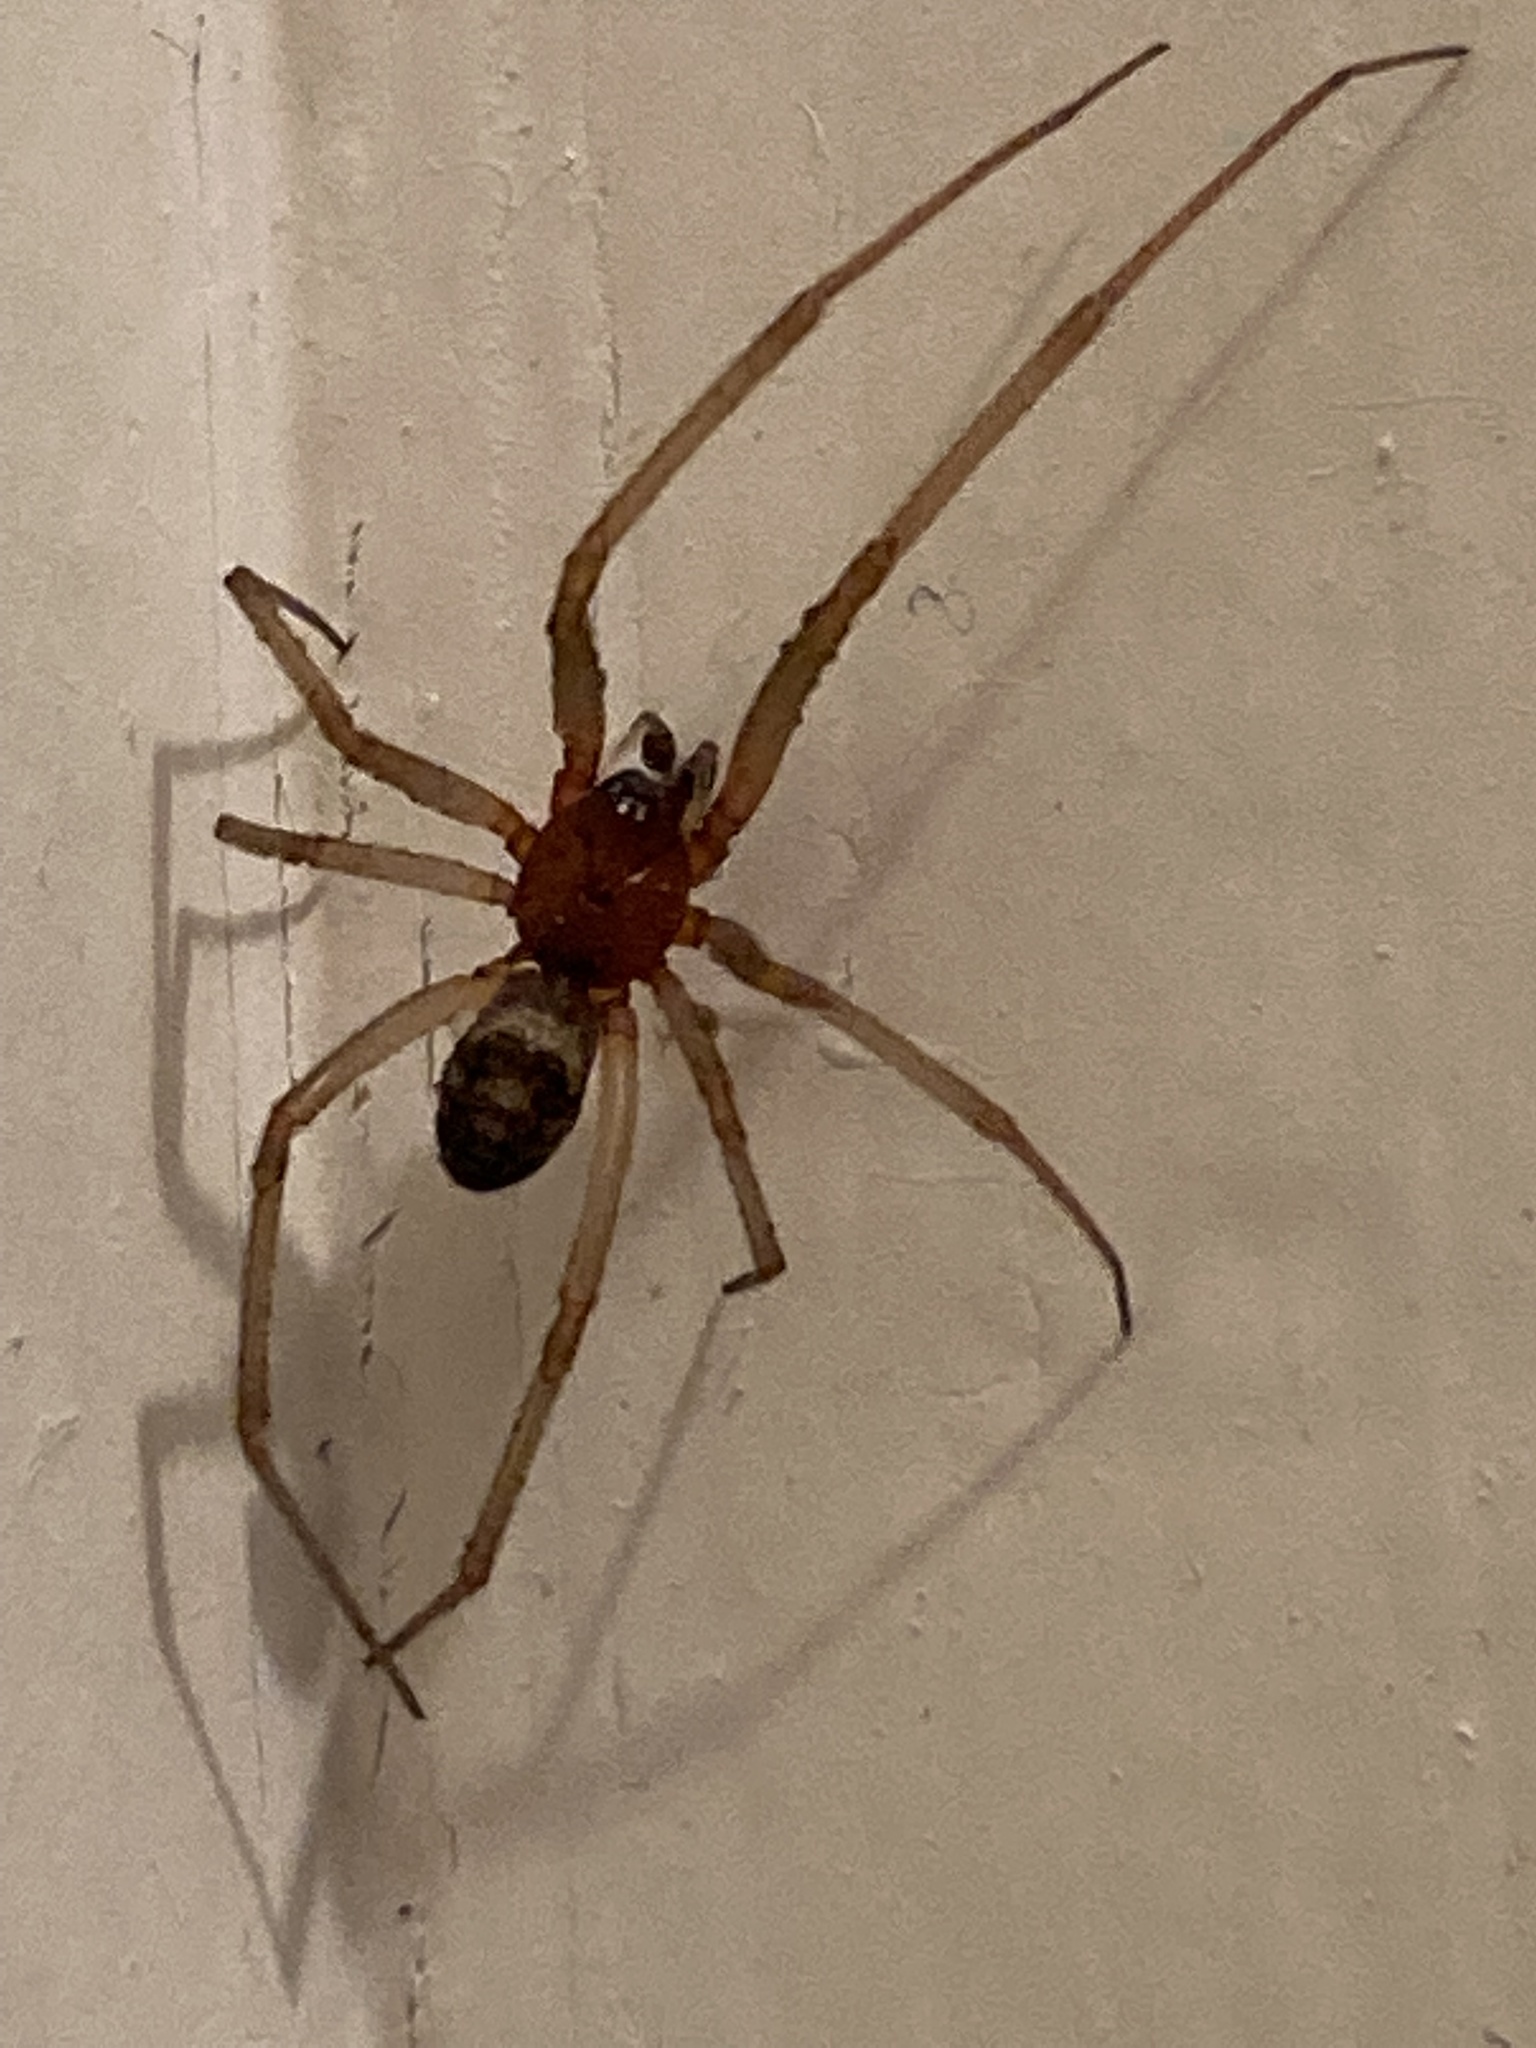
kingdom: Animalia
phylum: Arthropoda
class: Arachnida
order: Araneae
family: Theridiidae
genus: Steatoda
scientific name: Steatoda grossa
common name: False black widow
